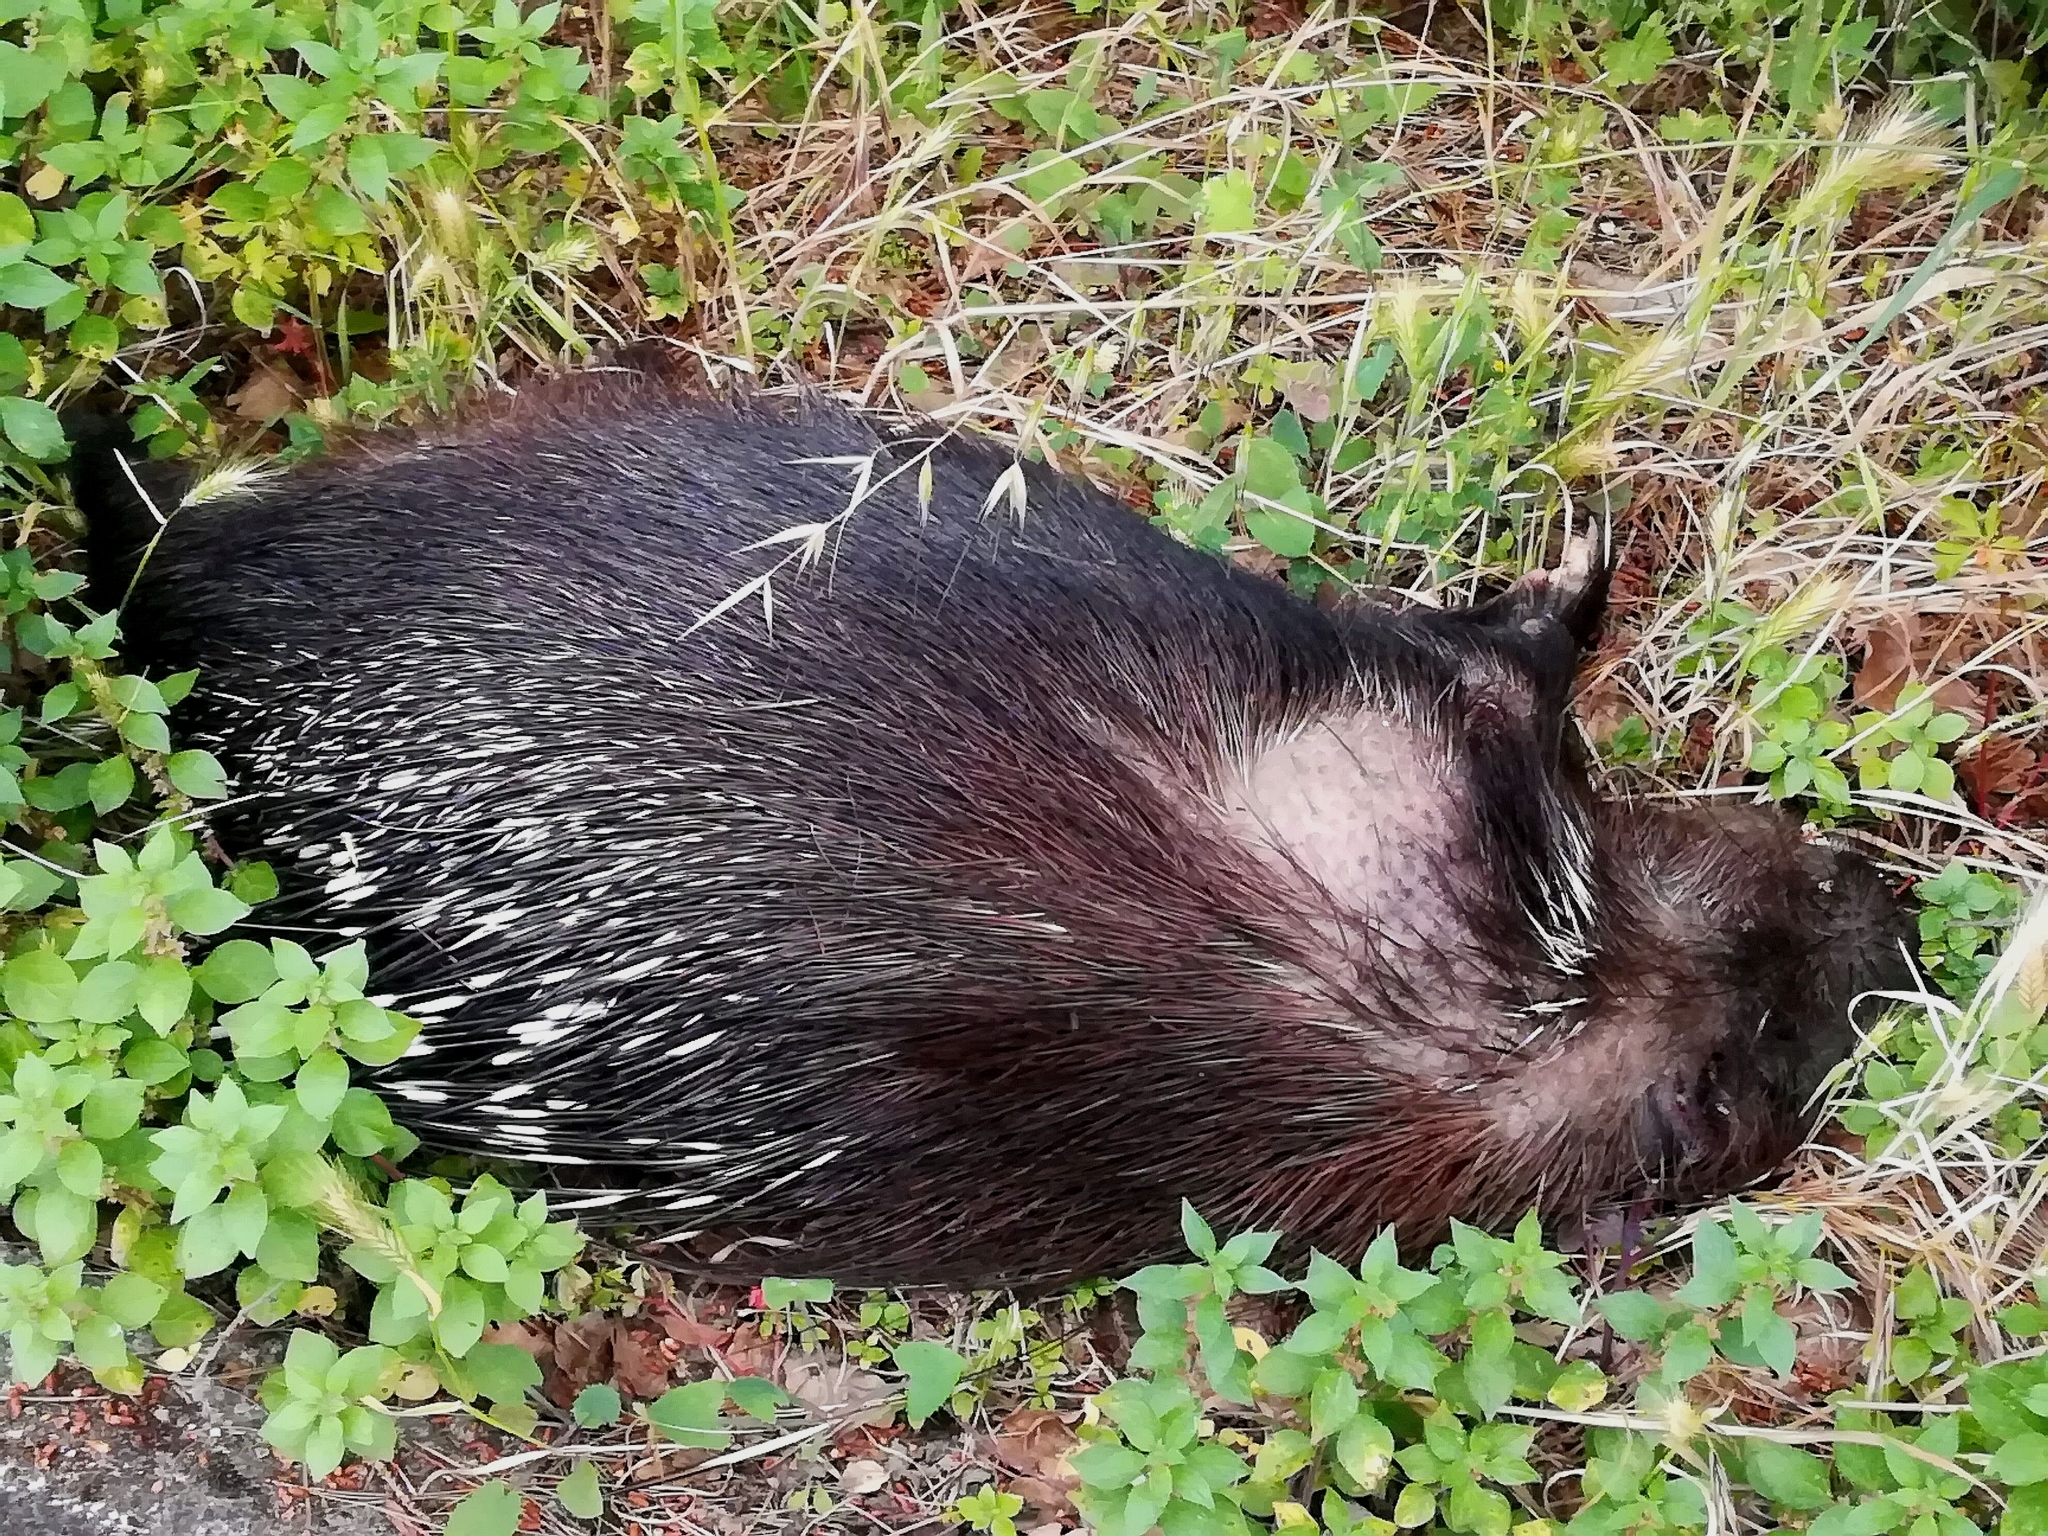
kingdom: Animalia
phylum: Chordata
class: Mammalia
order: Rodentia
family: Hystricidae
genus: Hystrix
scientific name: Hystrix cristata
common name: Crested porcupine
